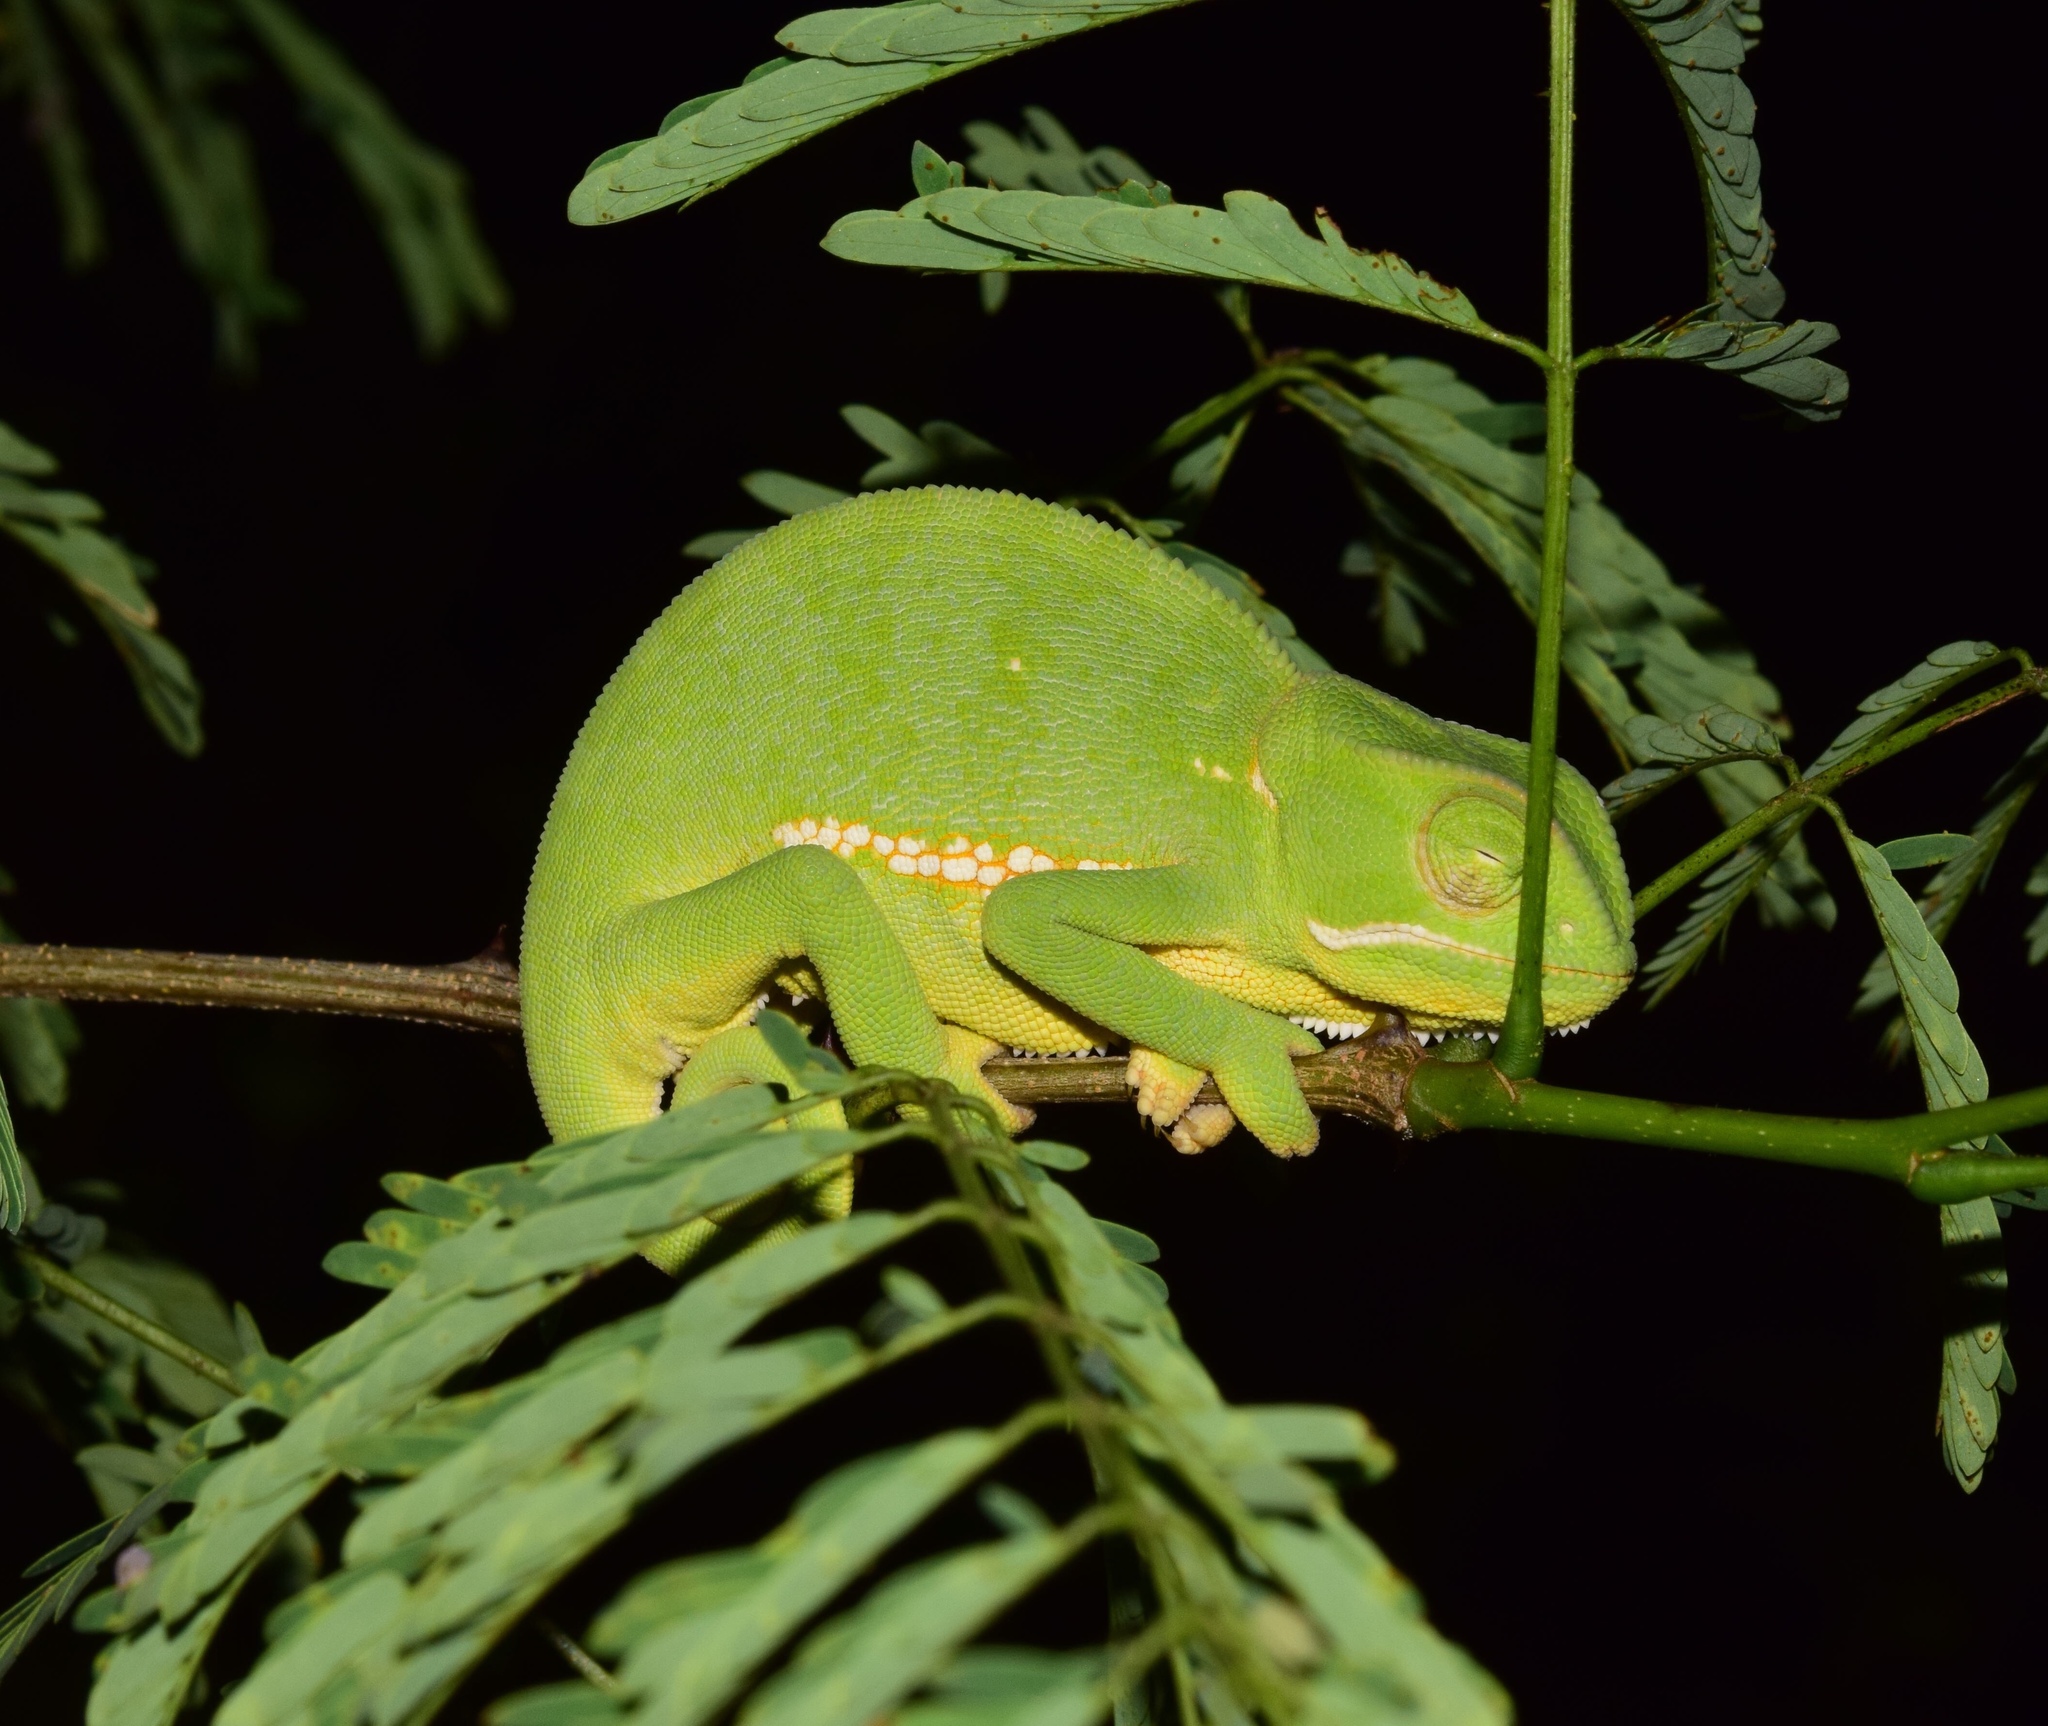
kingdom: Animalia
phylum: Chordata
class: Squamata
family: Chamaeleonidae
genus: Chamaeleo
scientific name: Chamaeleo dilepis
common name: Flapneck chameleon
